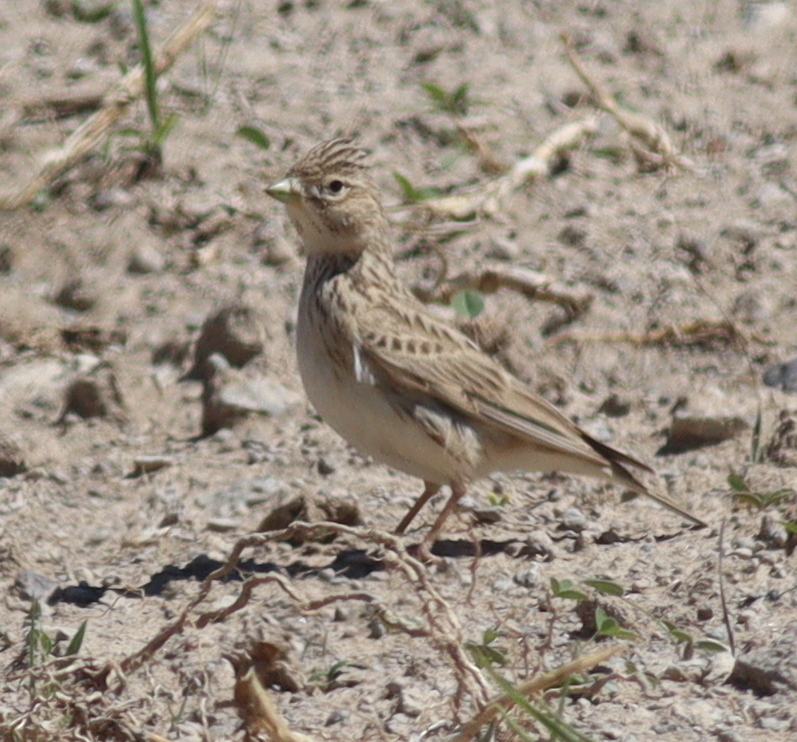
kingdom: Animalia
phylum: Chordata
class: Aves
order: Passeriformes
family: Alaudidae
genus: Calandrella
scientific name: Calandrella rufescens
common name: Lesser short-toed lark
